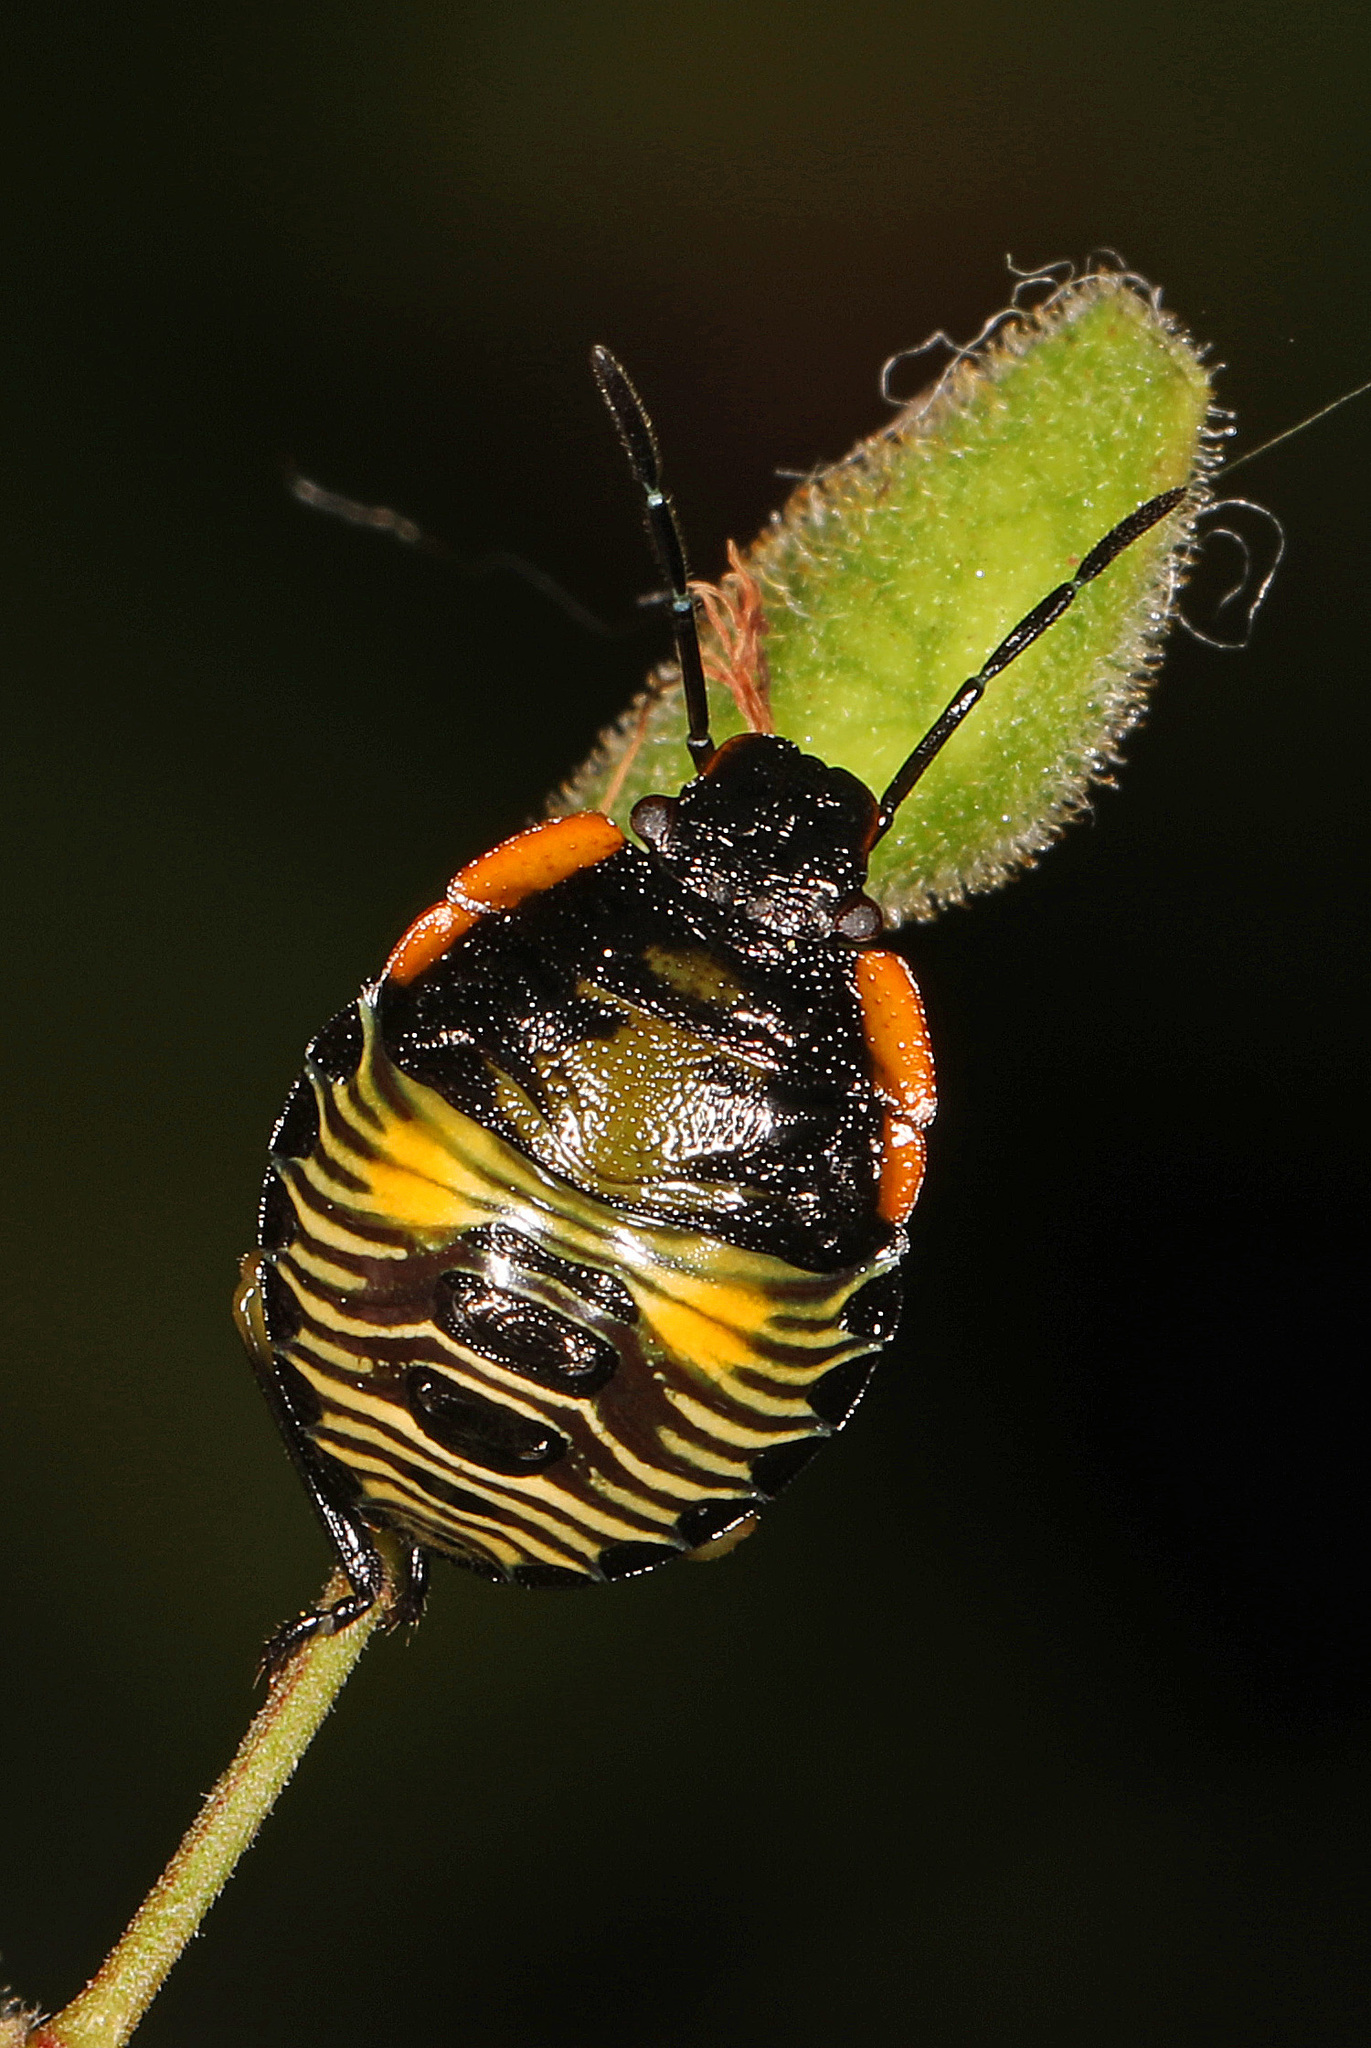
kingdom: Animalia
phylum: Arthropoda
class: Insecta
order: Hemiptera
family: Pentatomidae
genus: Chinavia
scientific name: Chinavia hilaris
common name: Green stink bug
